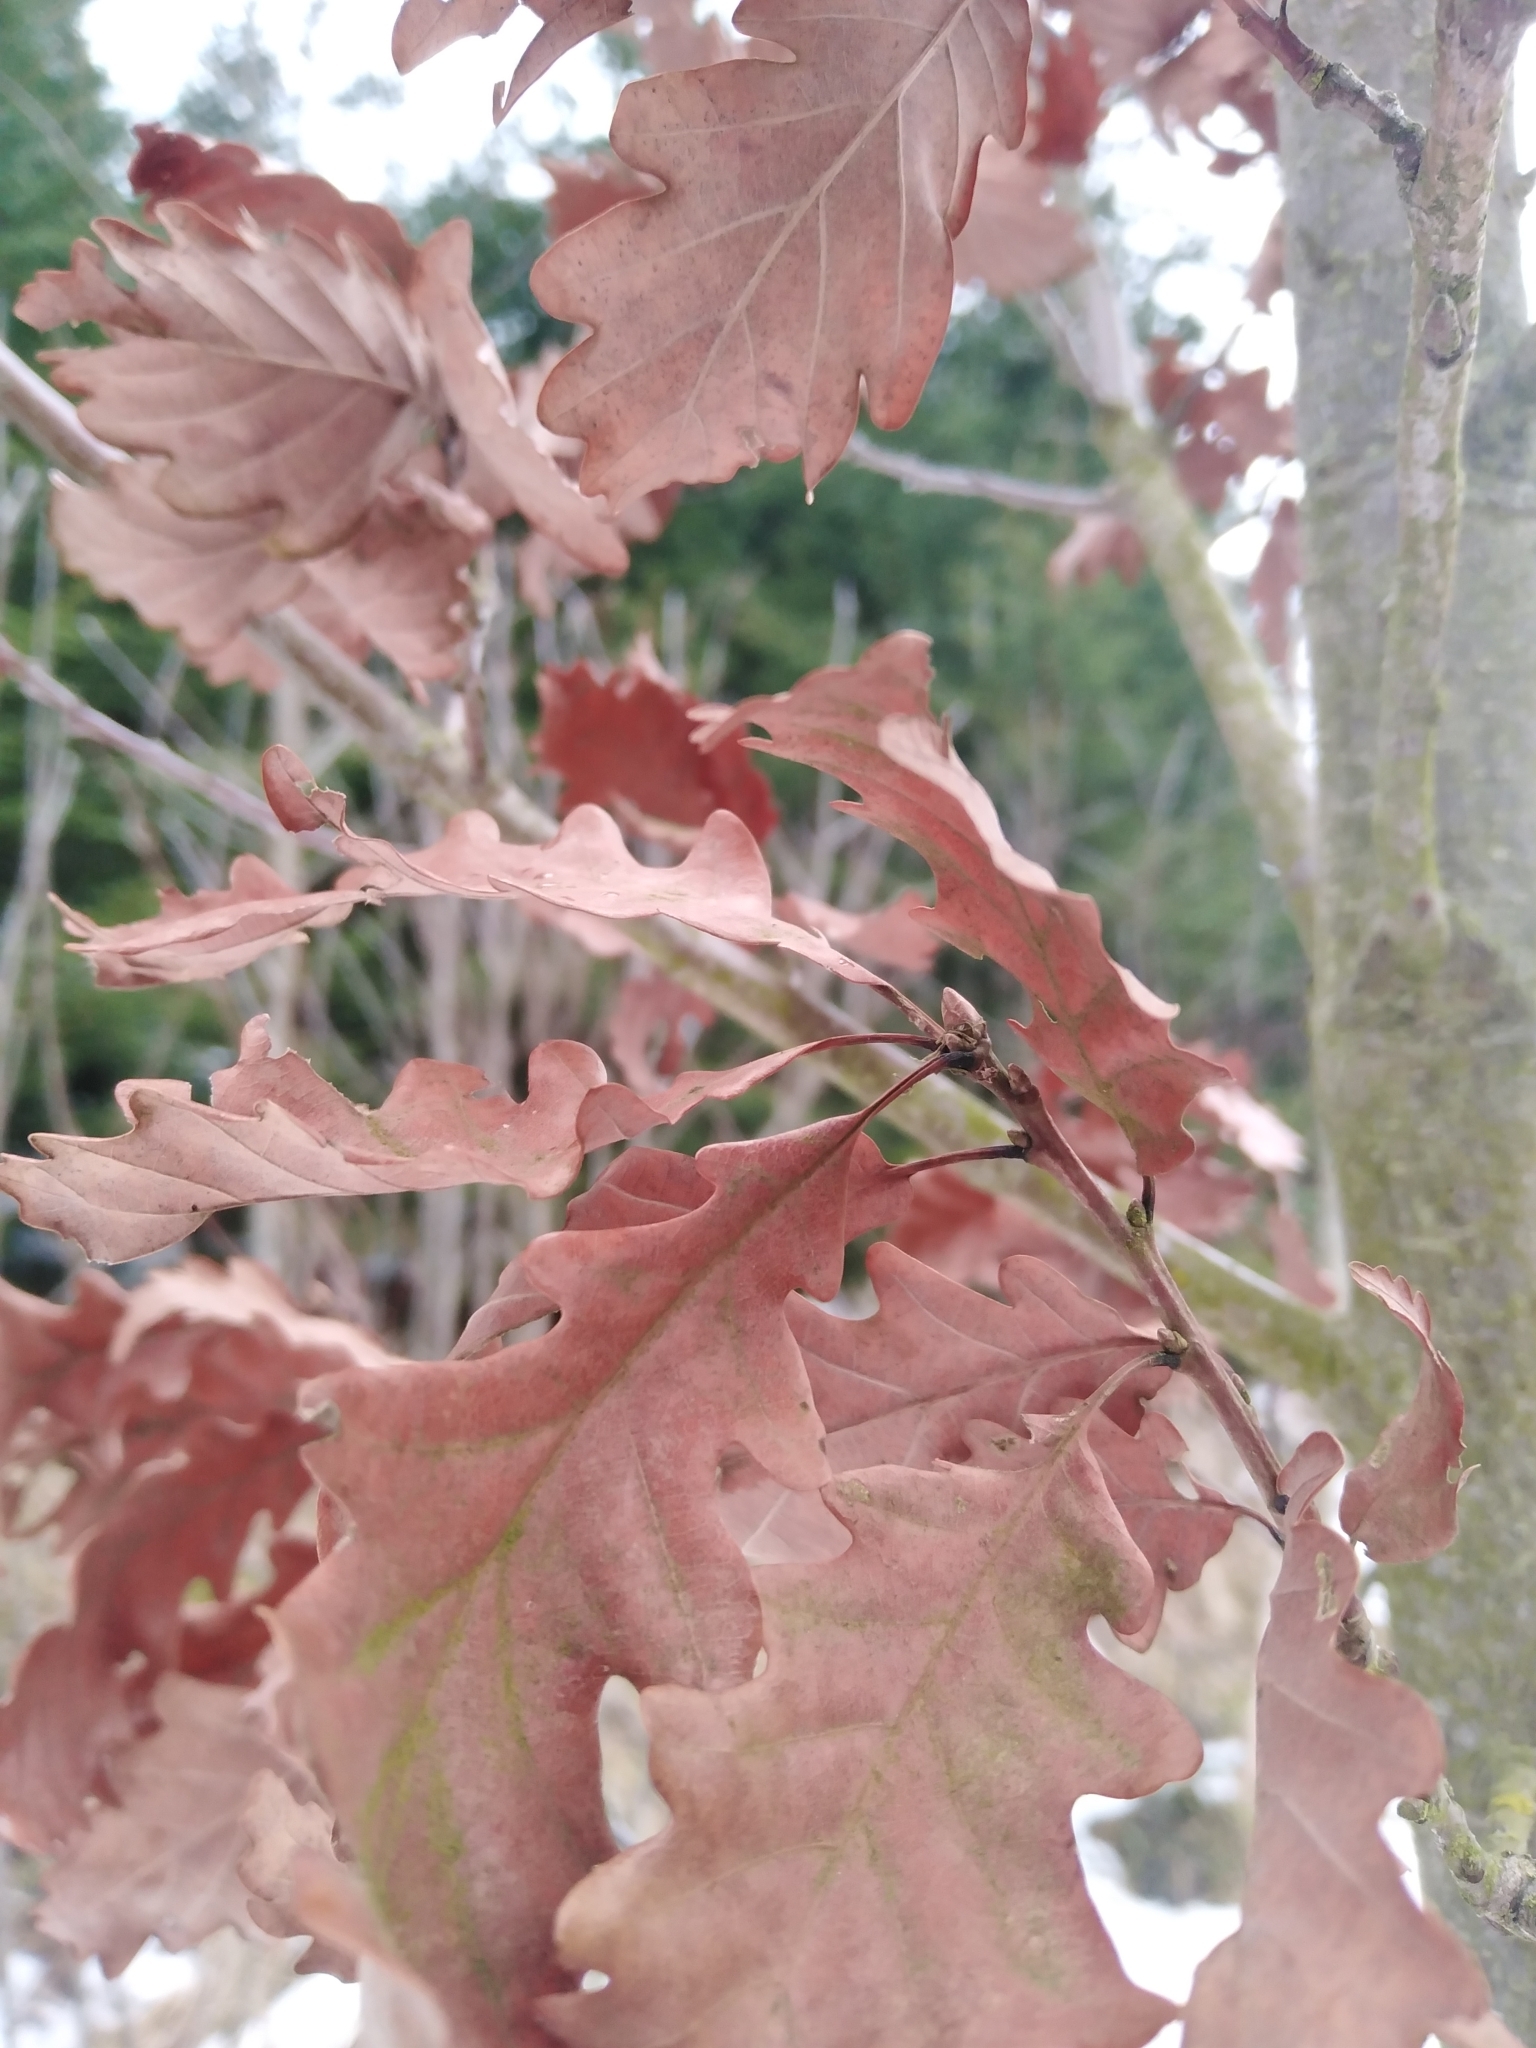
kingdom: Plantae
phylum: Tracheophyta
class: Magnoliopsida
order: Fagales
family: Fagaceae
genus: Quercus
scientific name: Quercus petraea
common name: Sessile oak
